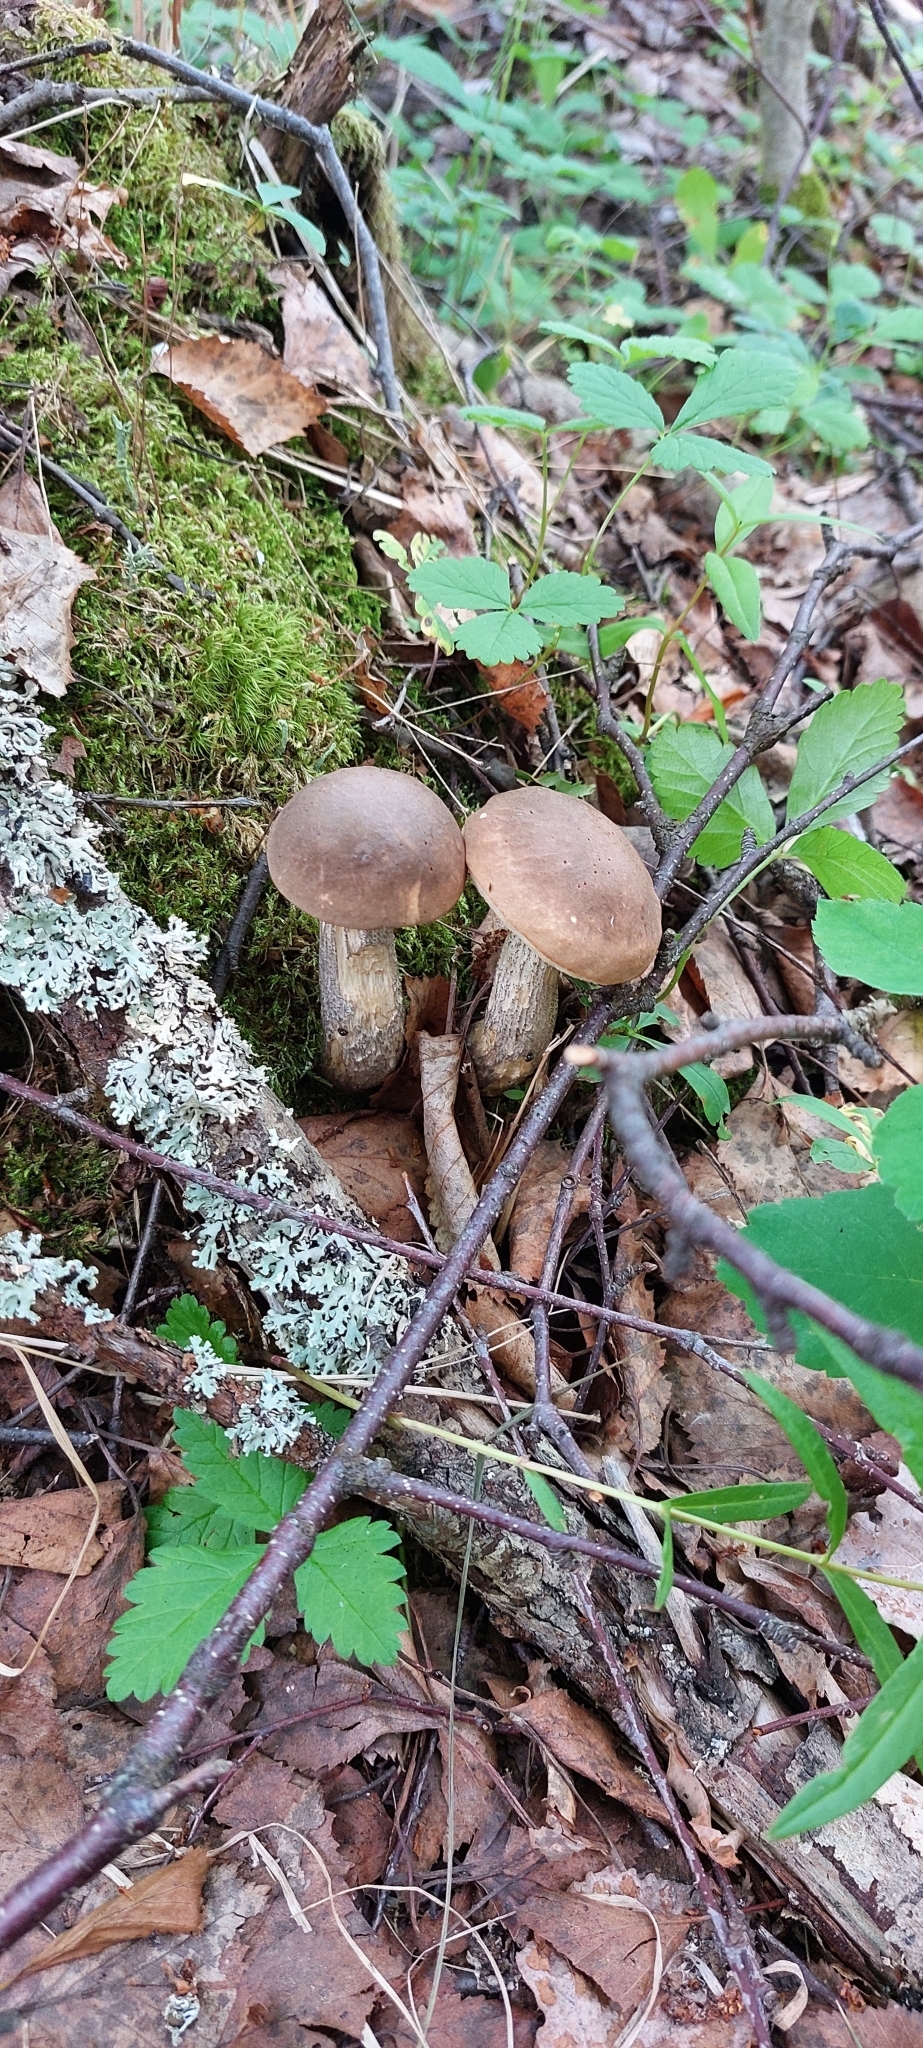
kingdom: Fungi
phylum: Basidiomycota
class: Agaricomycetes
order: Boletales
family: Boletaceae
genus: Leccinum
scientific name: Leccinum scabrum
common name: Blushing bolete
